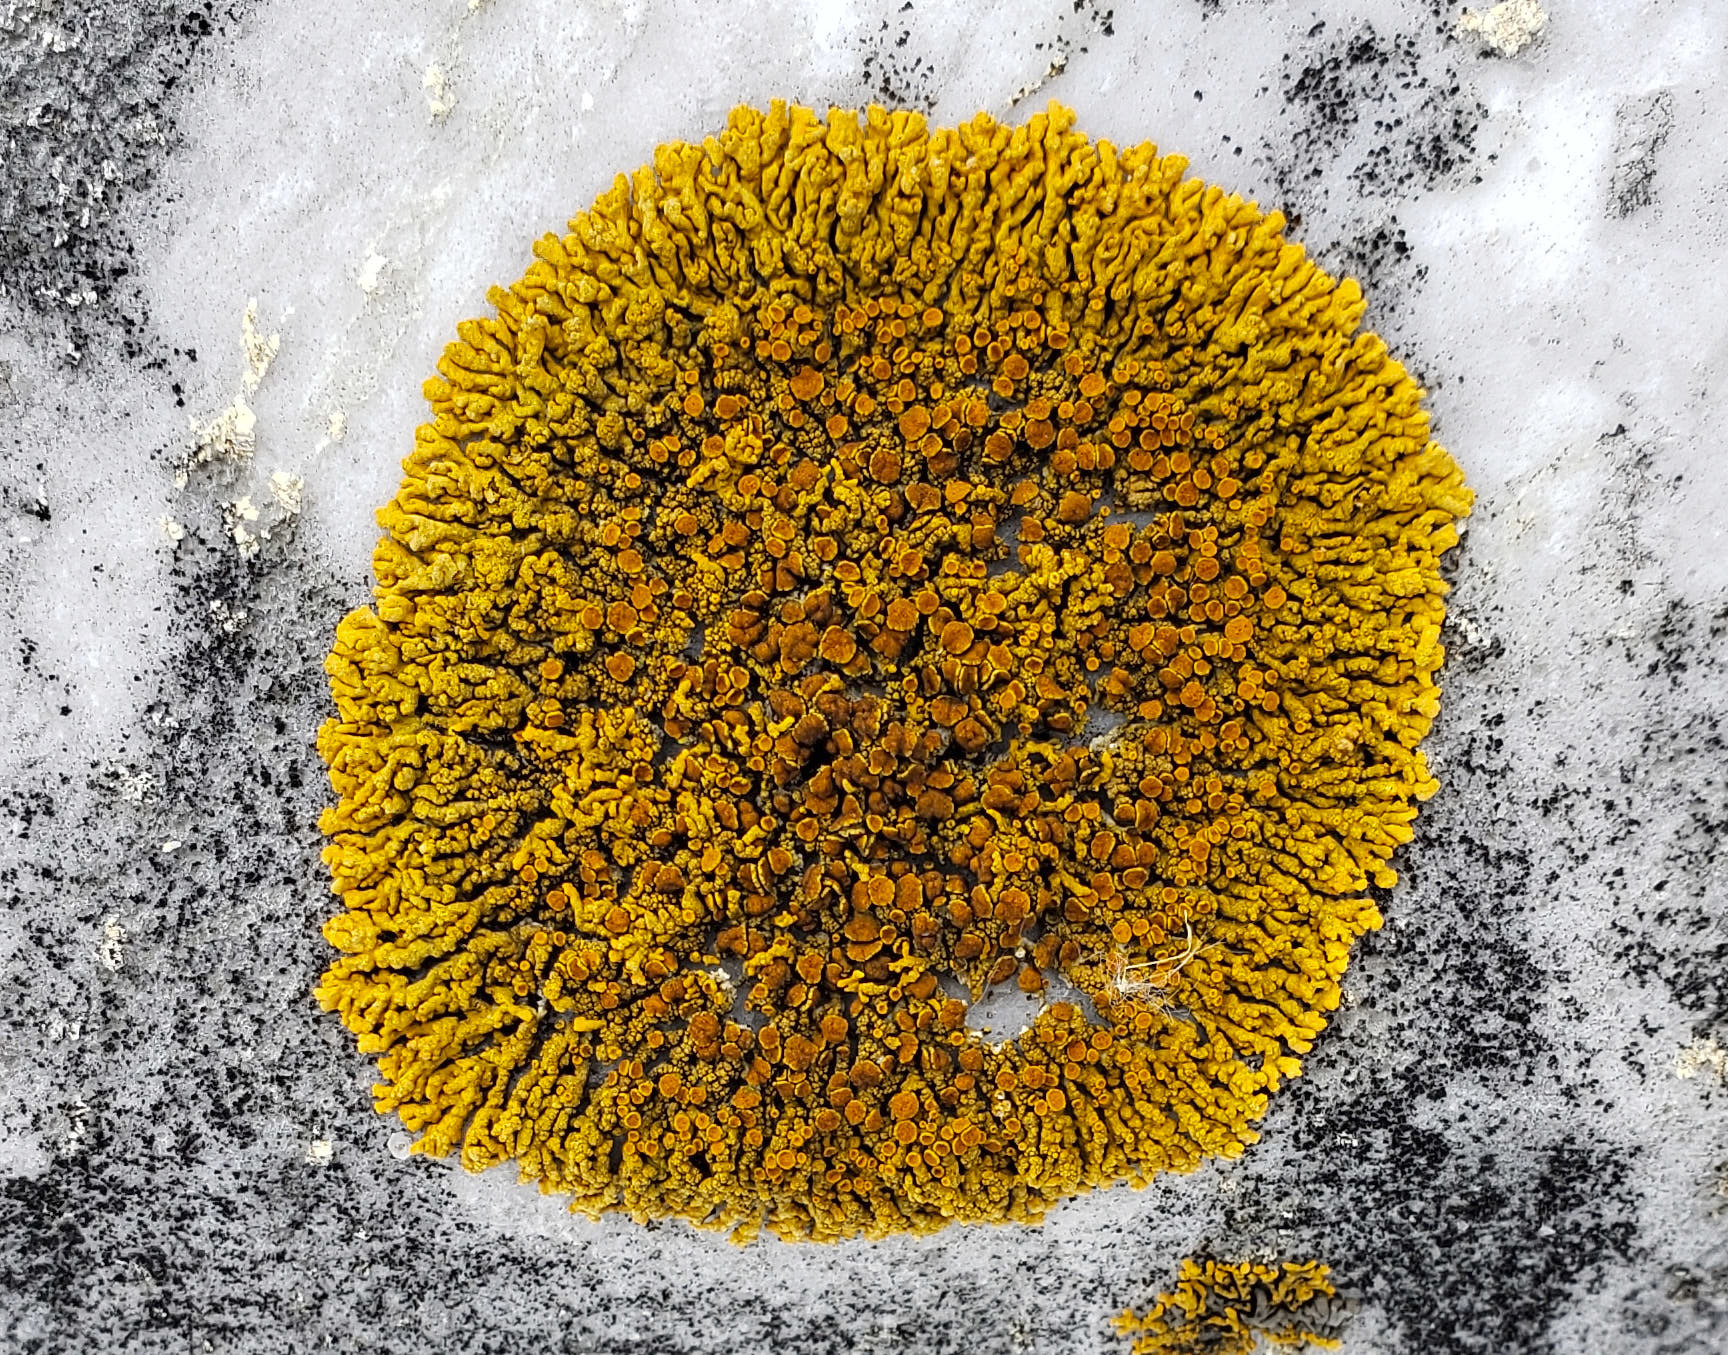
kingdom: Fungi
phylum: Ascomycota
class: Lecanoromycetes
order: Teloschistales
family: Teloschistaceae
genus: Xanthoria
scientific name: Xanthoria elegans
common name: Elegant sunburst lichen
